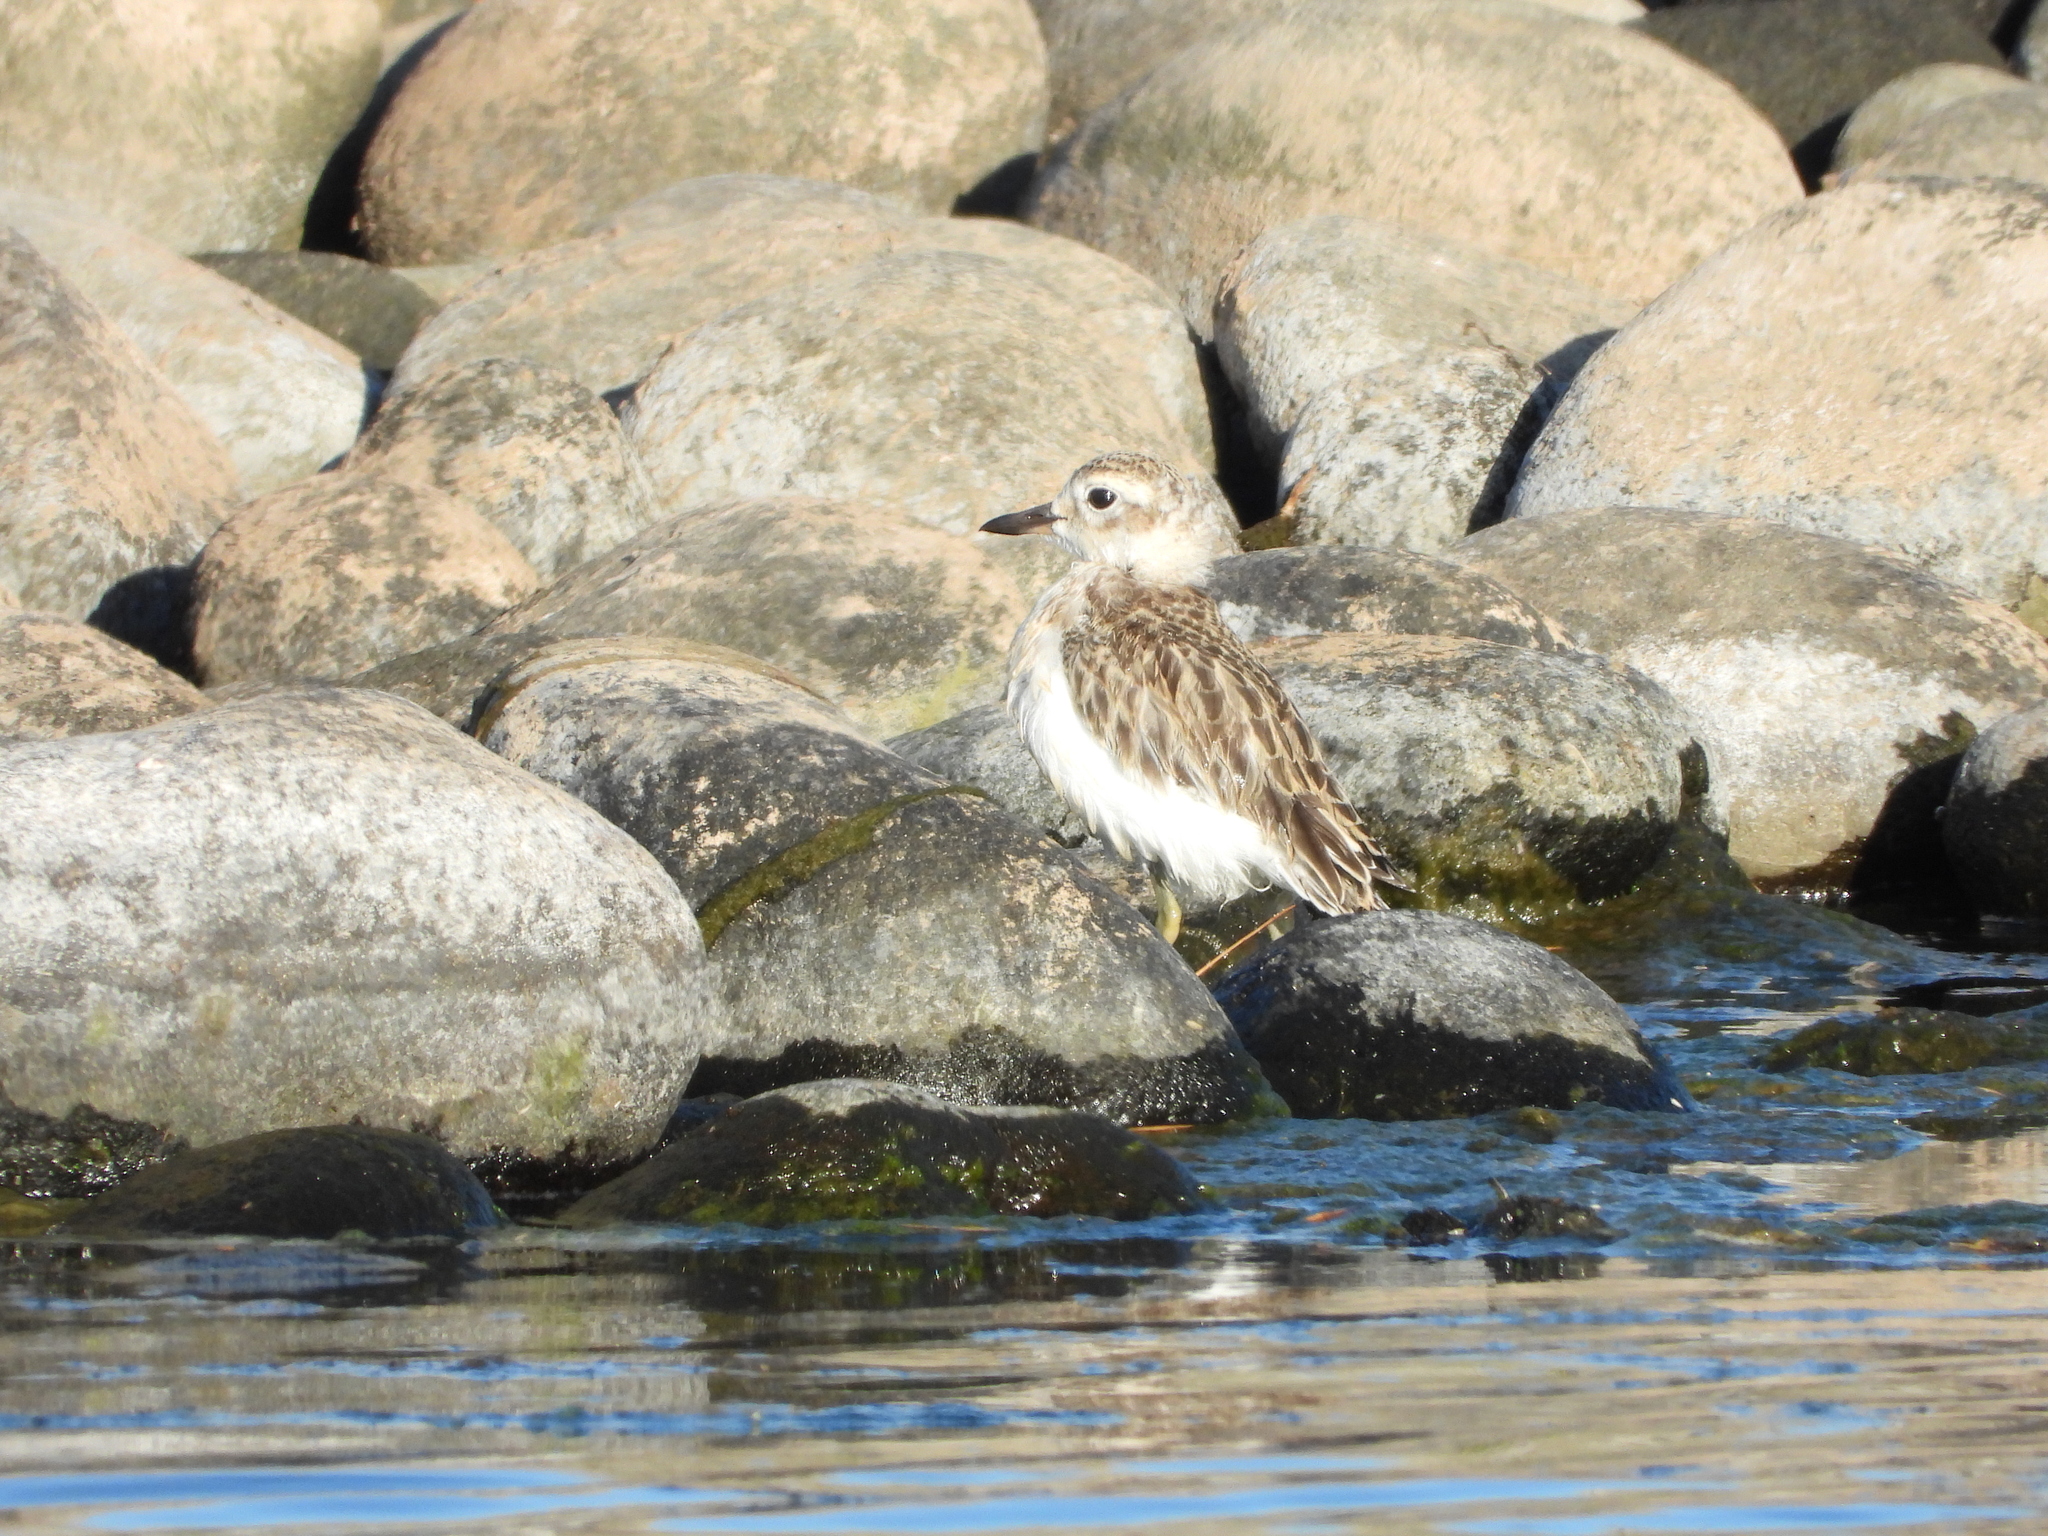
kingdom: Animalia
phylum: Chordata
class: Aves
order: Charadriiformes
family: Charadriidae
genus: Anarhynchus
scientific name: Anarhynchus
